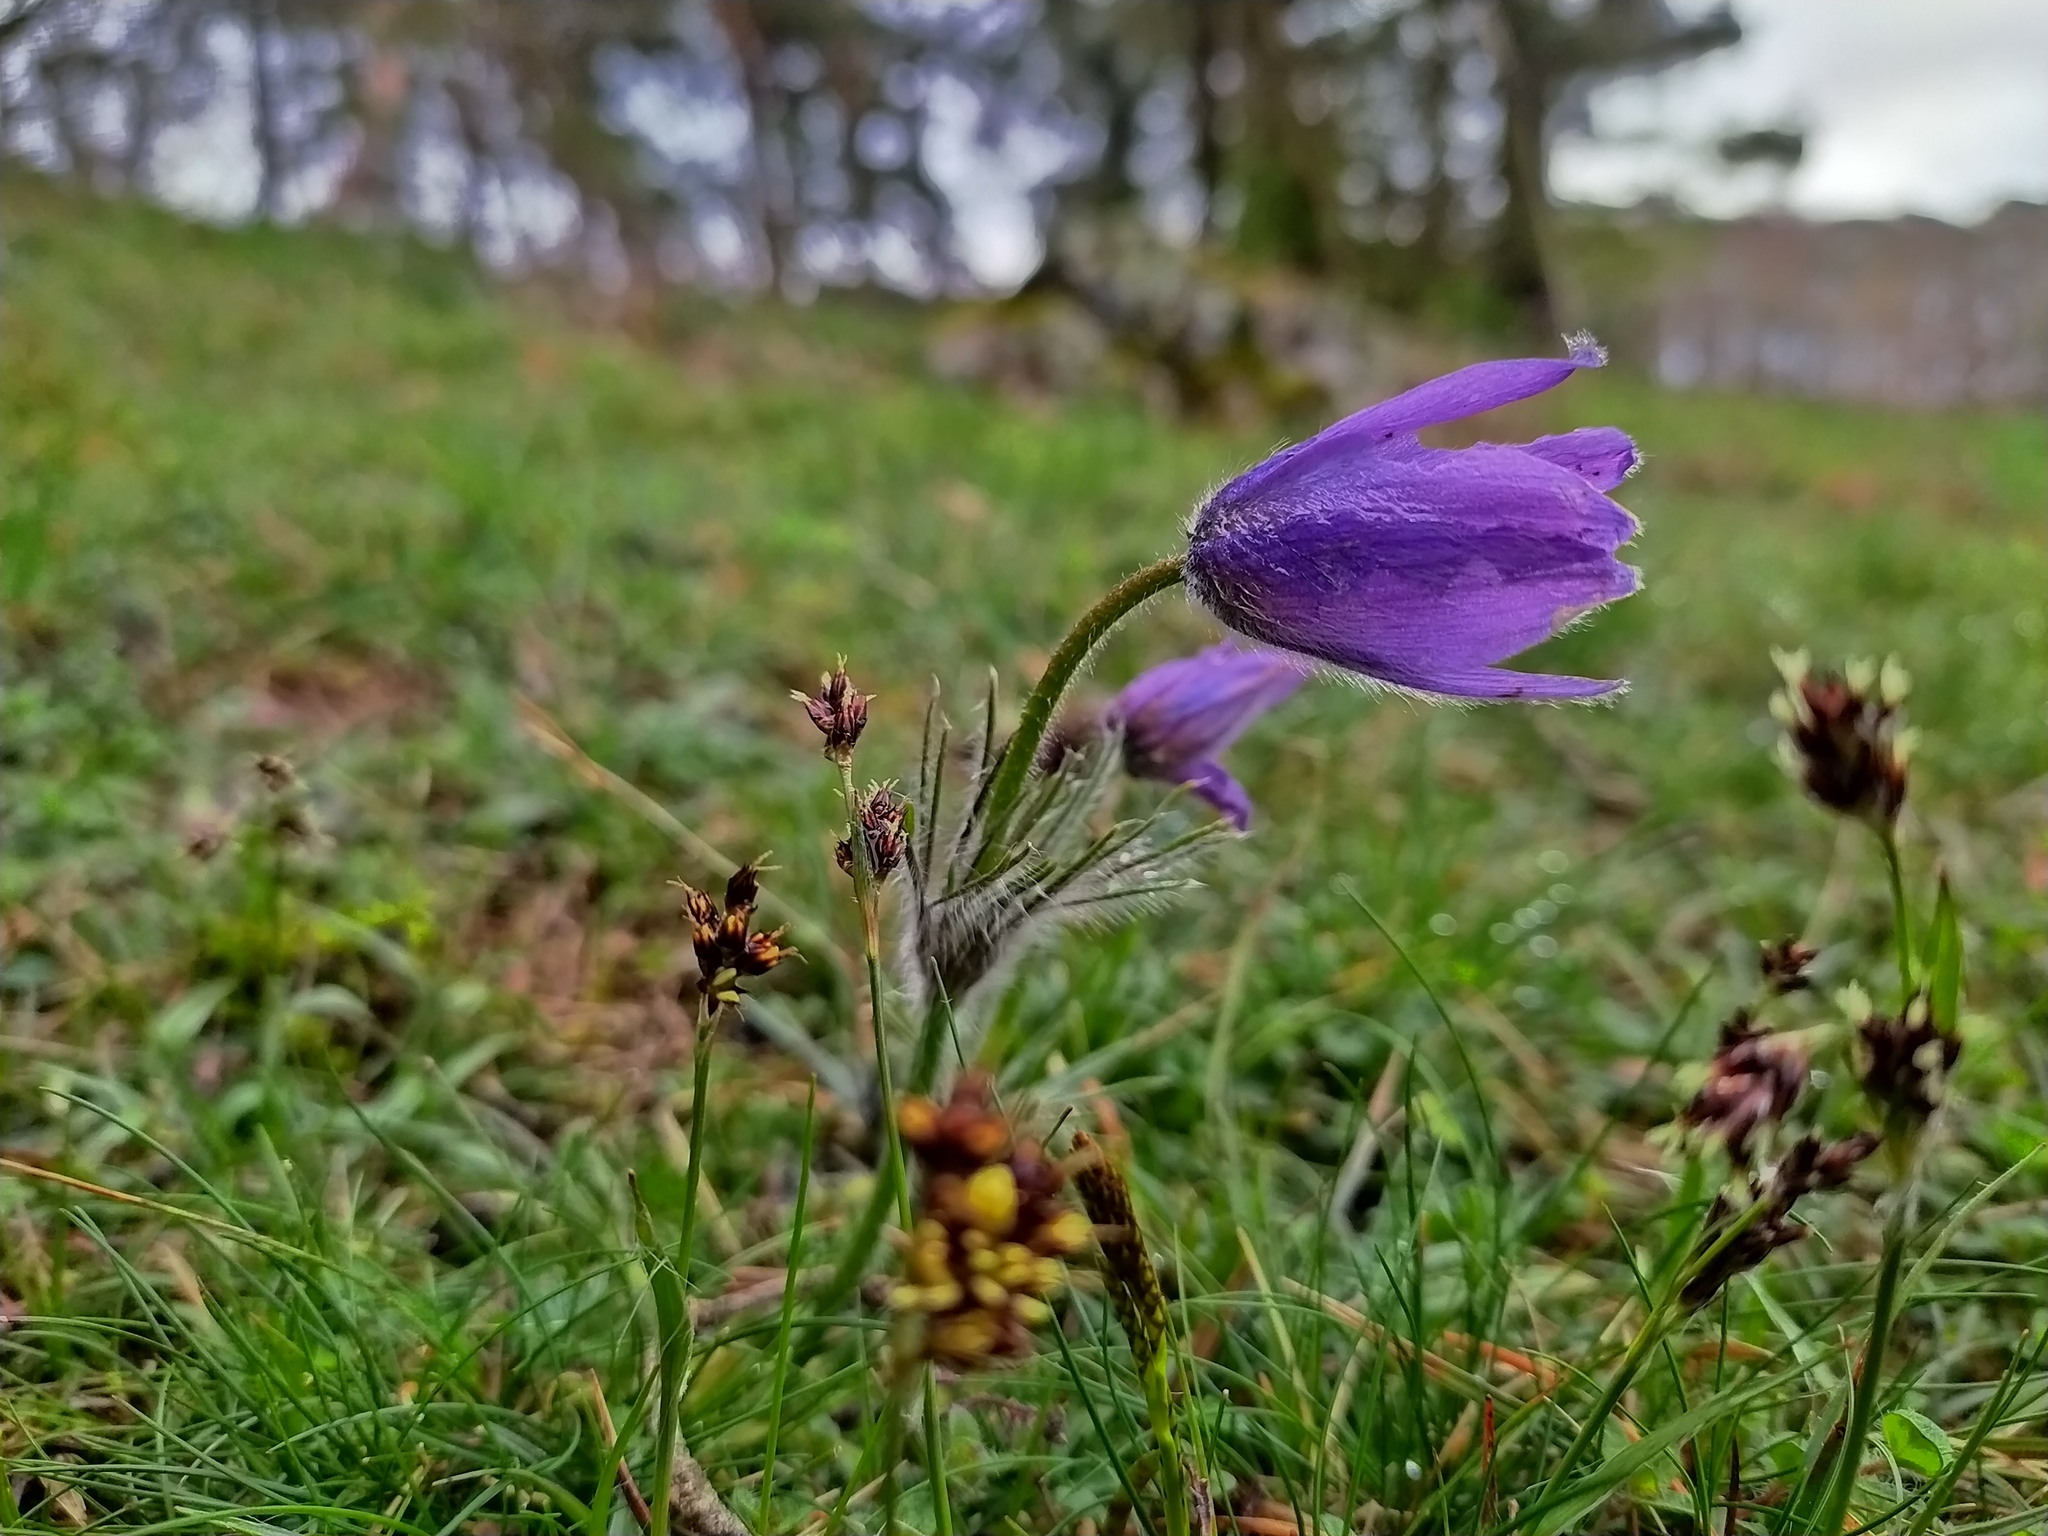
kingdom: Plantae
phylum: Tracheophyta
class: Magnoliopsida
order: Ranunculales
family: Ranunculaceae
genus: Pulsatilla
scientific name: Pulsatilla vulgaris
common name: Pasqueflower
